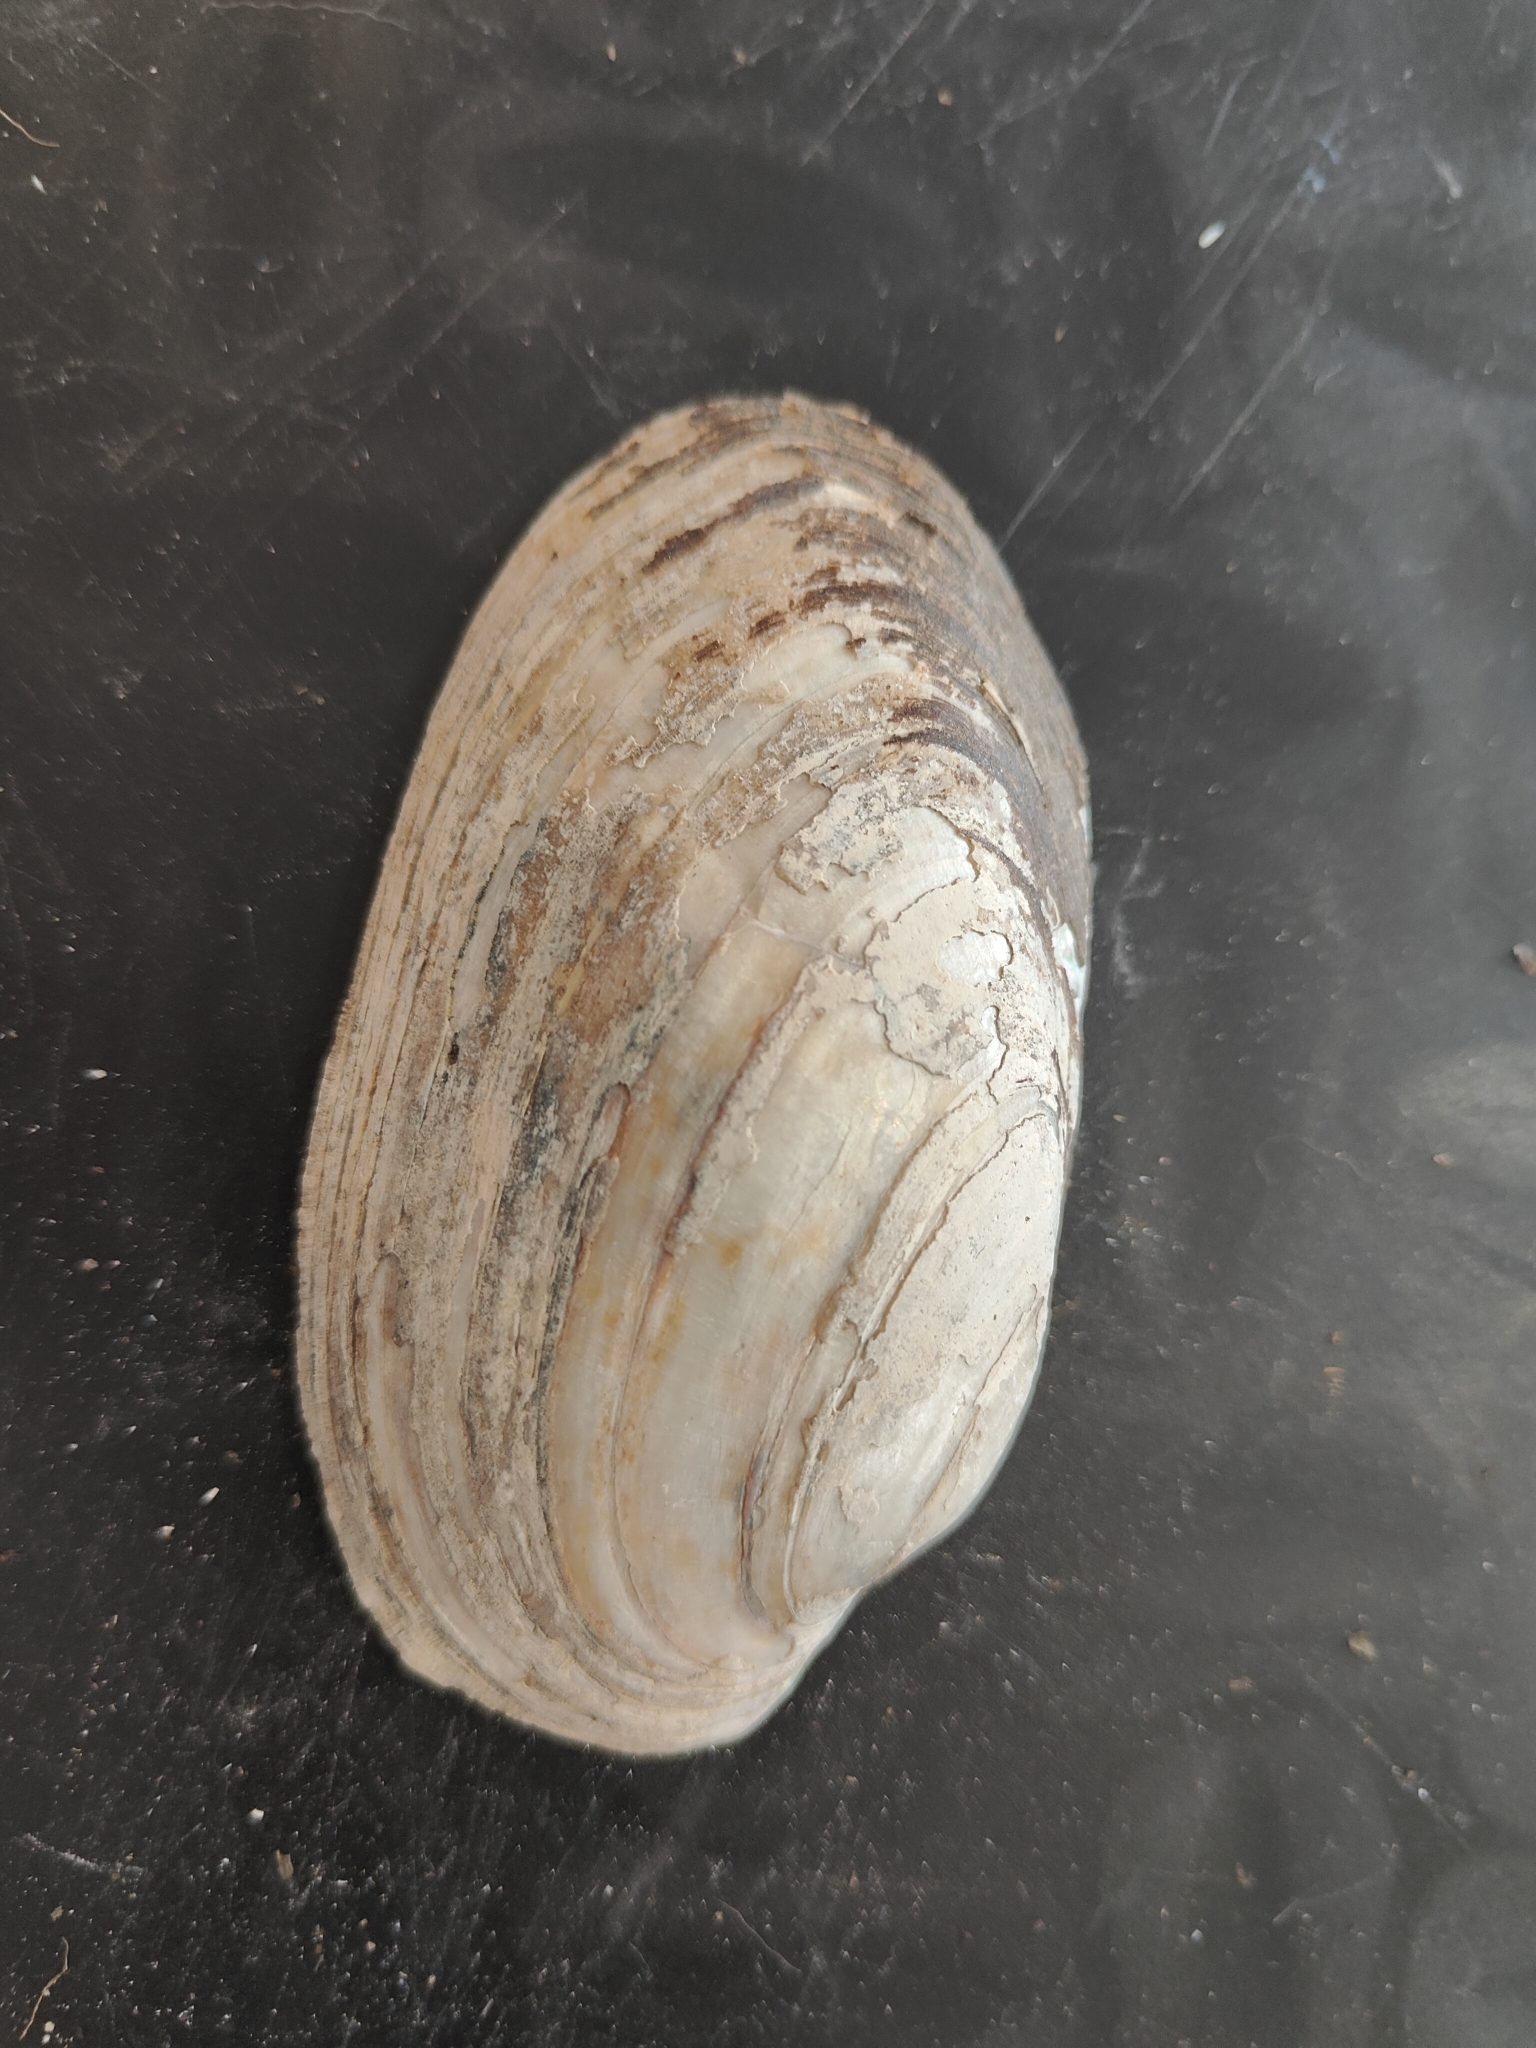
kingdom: Animalia
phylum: Mollusca
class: Bivalvia
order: Unionida
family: Unionidae
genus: Lampsilis
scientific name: Lampsilis siliquoidea
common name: Fatmucket
